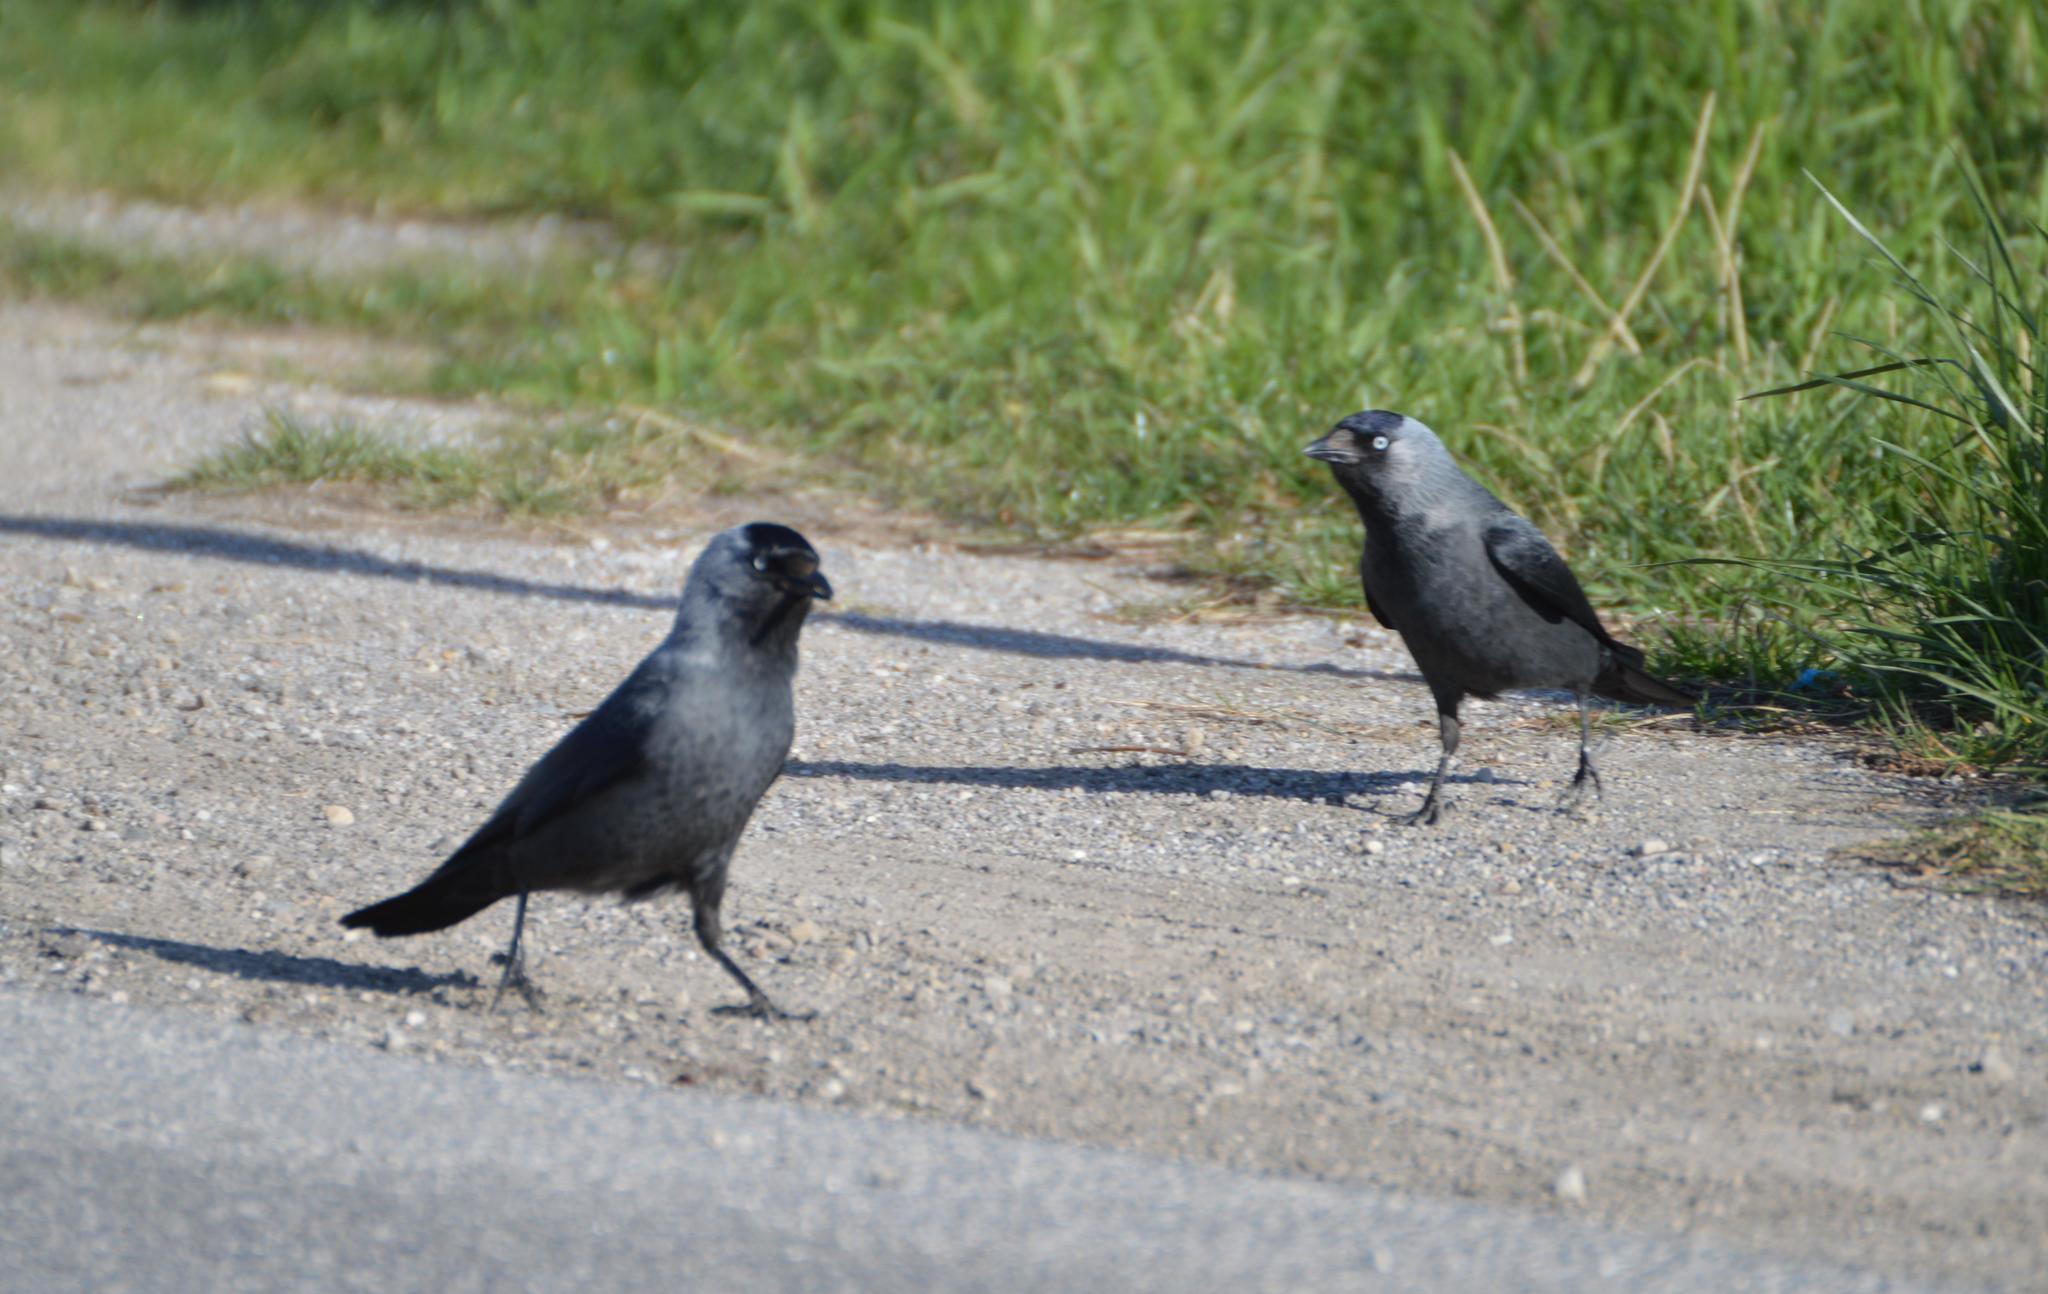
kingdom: Animalia
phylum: Chordata
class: Aves
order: Passeriformes
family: Corvidae
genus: Coloeus
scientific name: Coloeus monedula
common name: Western jackdaw
